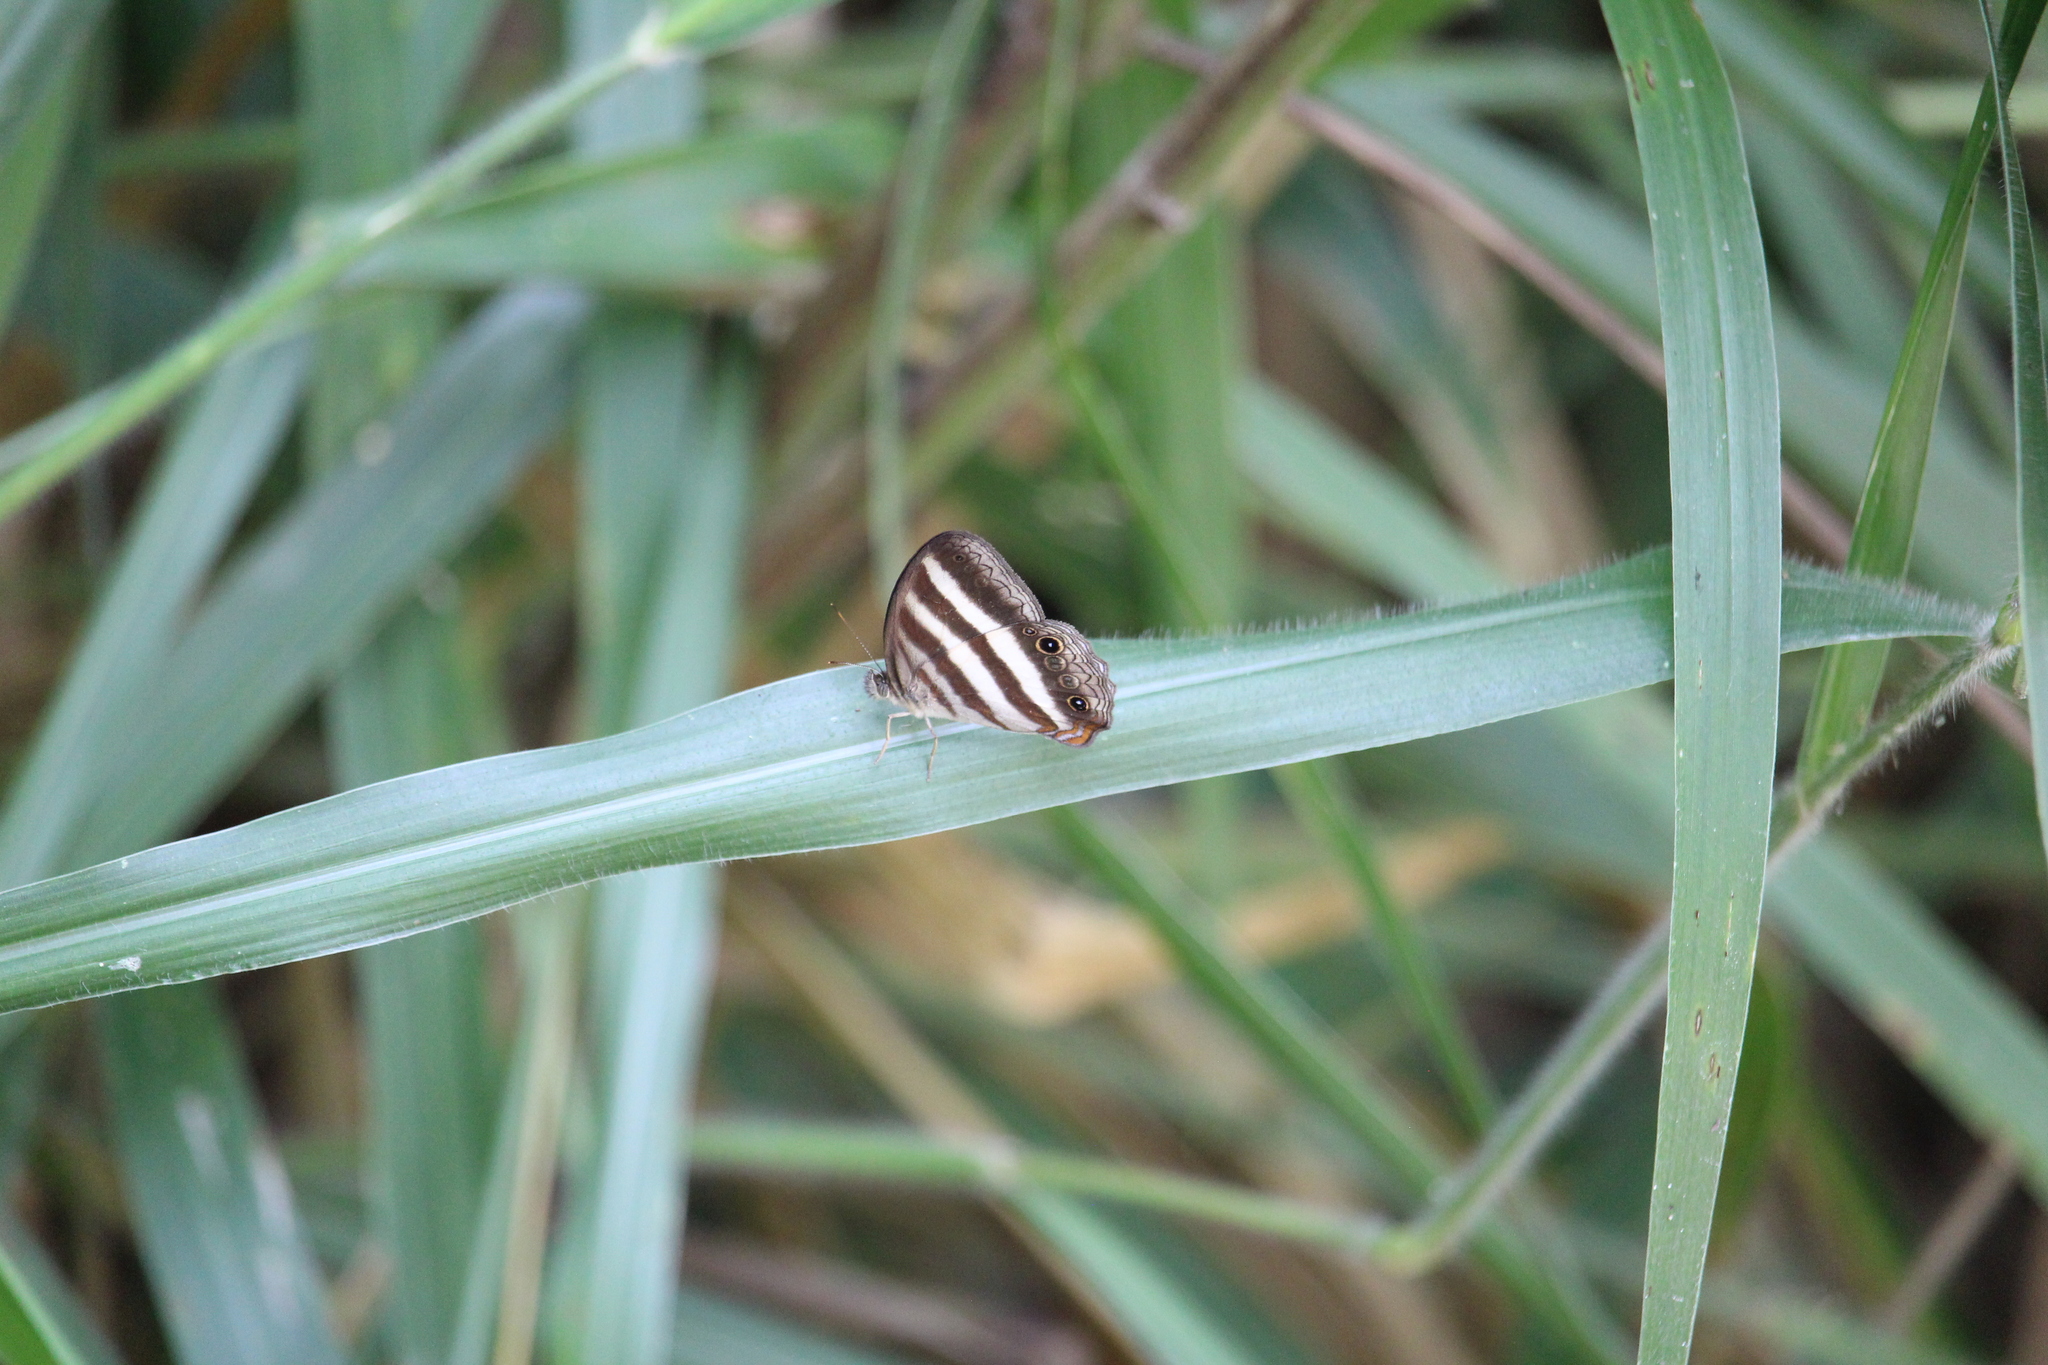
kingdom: Animalia
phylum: Arthropoda
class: Insecta
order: Lepidoptera
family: Nymphalidae
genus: Pareuptychia
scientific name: Pareuptychia hesione
